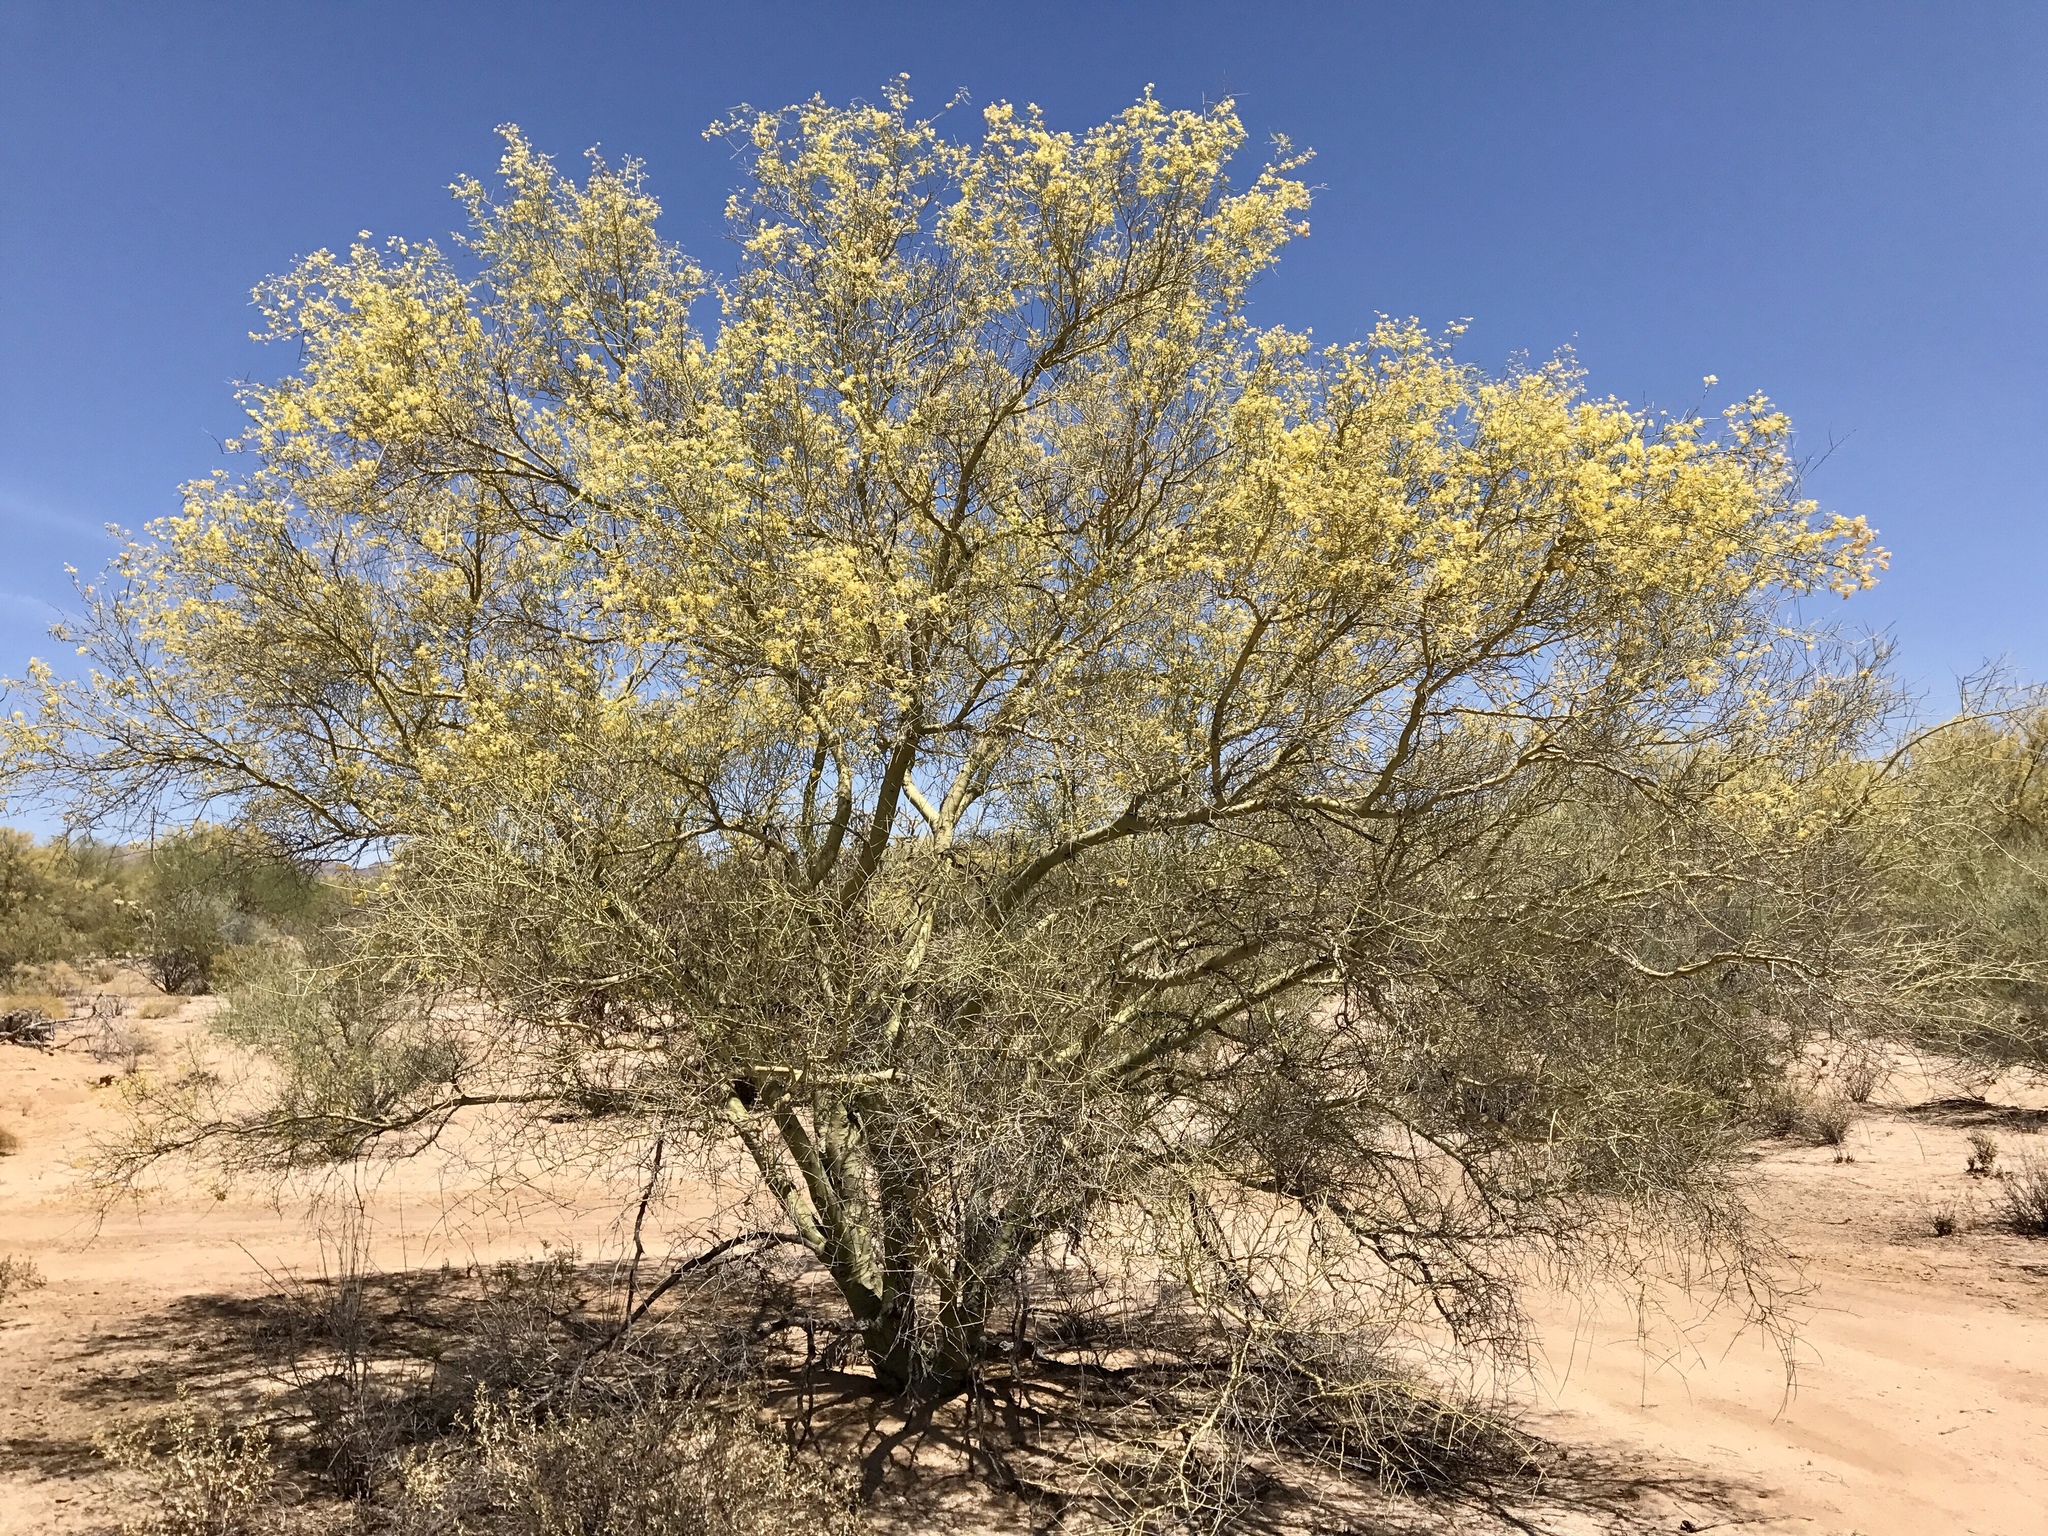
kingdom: Plantae
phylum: Tracheophyta
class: Magnoliopsida
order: Fabales
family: Fabaceae
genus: Parkinsonia
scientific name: Parkinsonia microphylla
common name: Yellow paloverde
